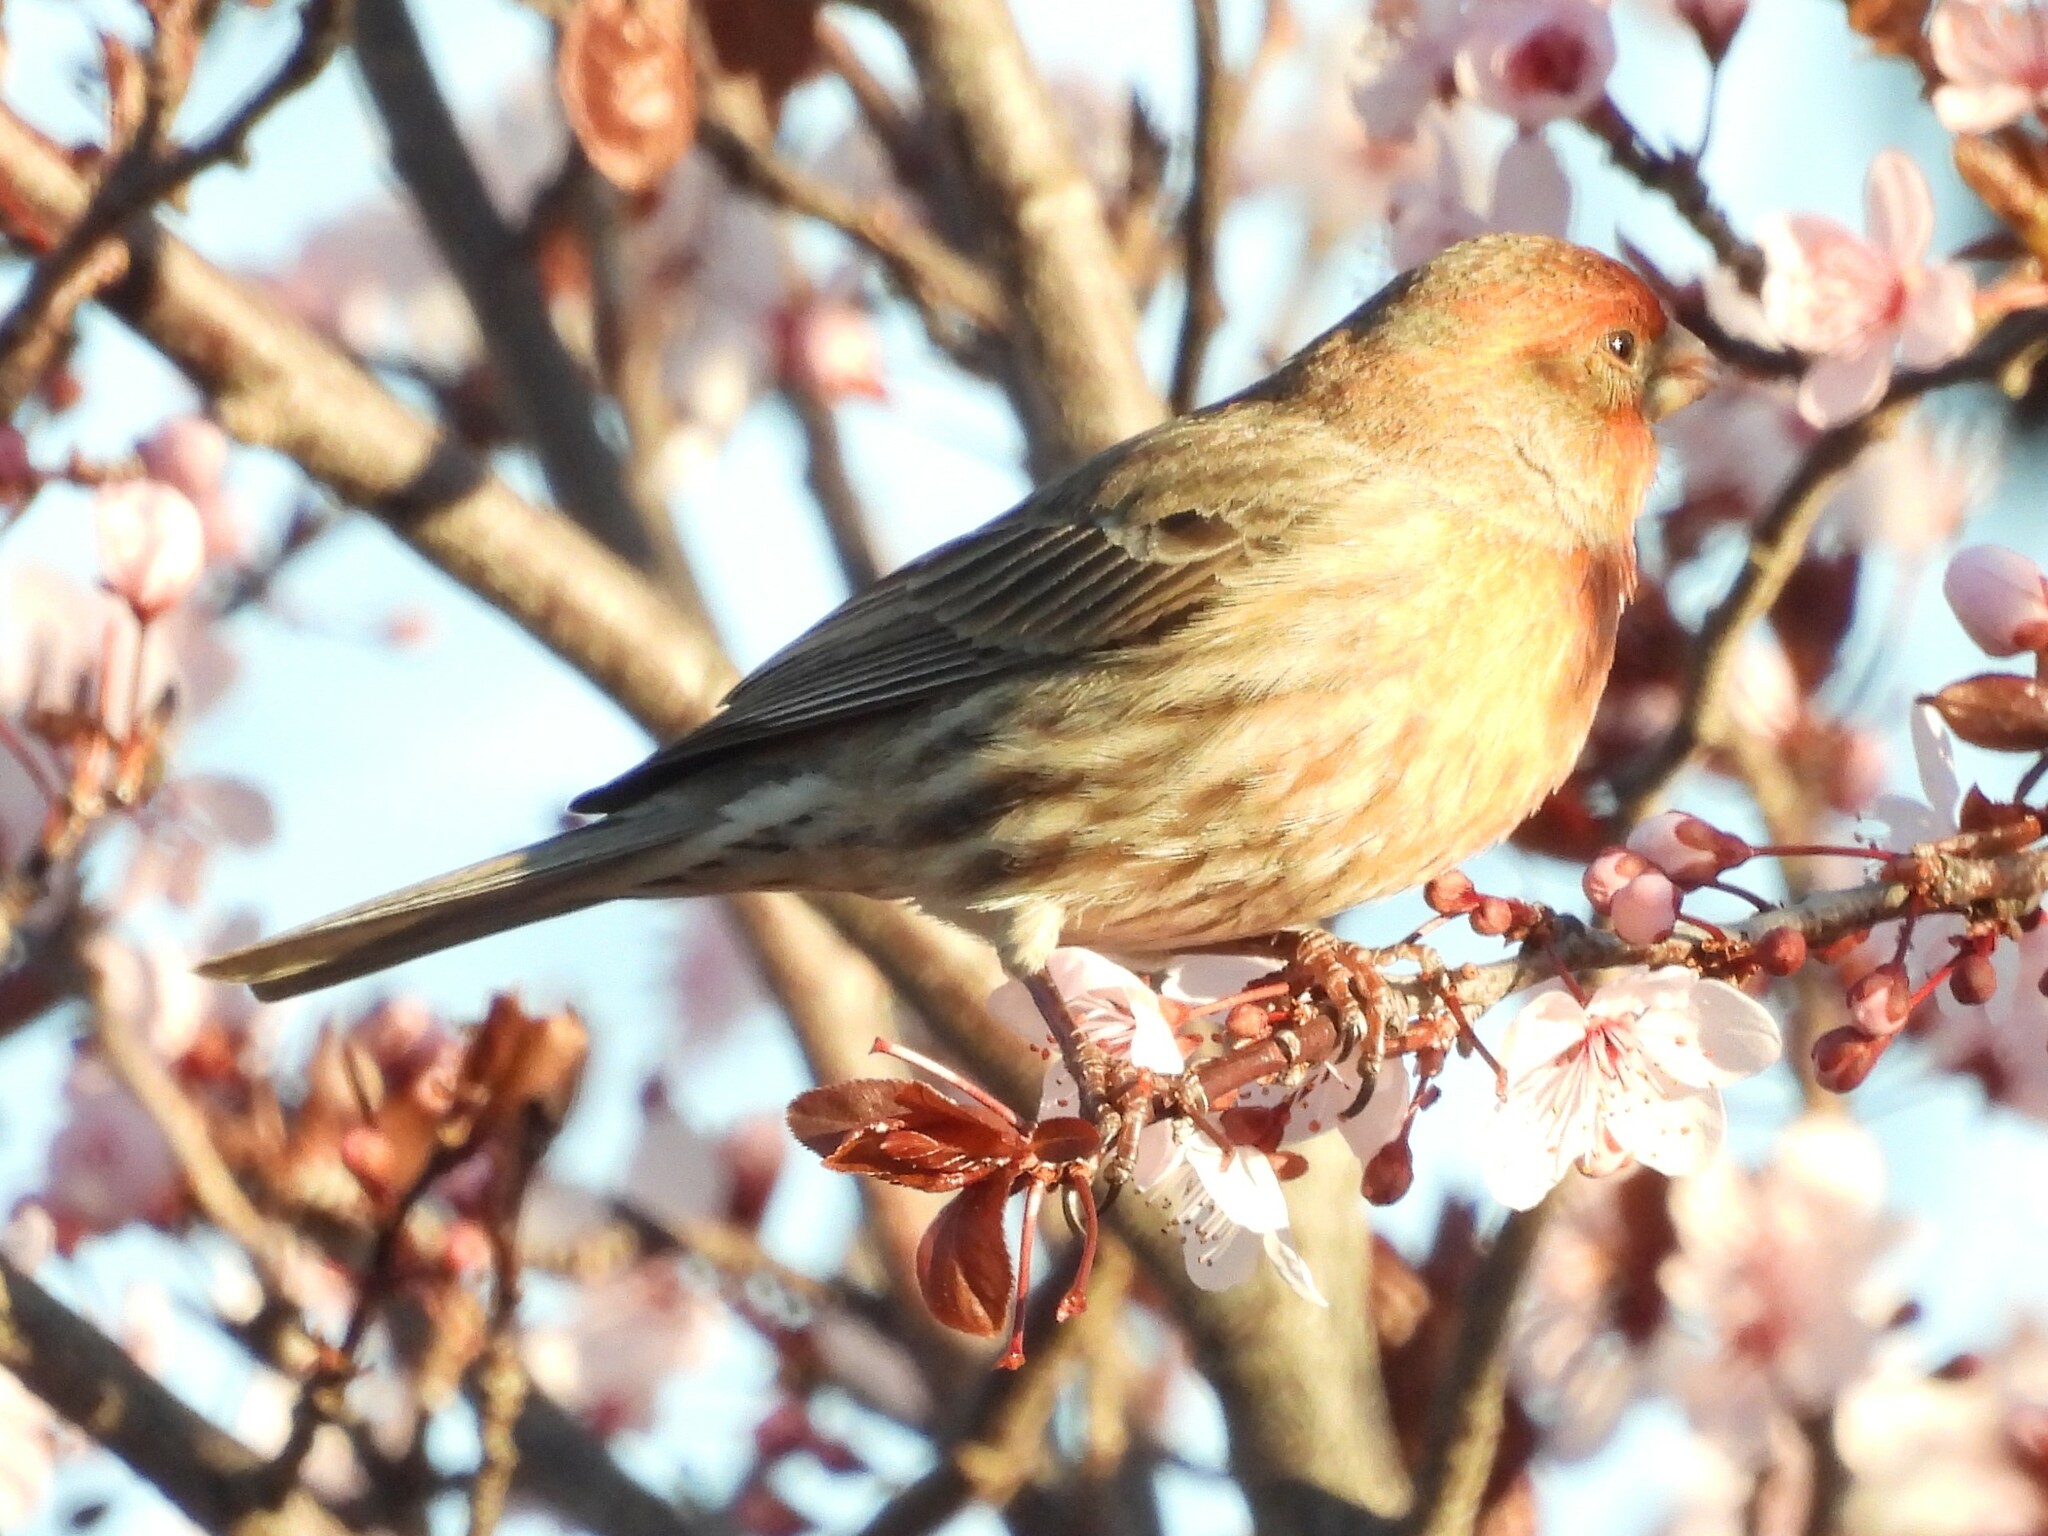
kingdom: Animalia
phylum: Chordata
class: Aves
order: Passeriformes
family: Fringillidae
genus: Haemorhous
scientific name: Haemorhous mexicanus
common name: House finch
